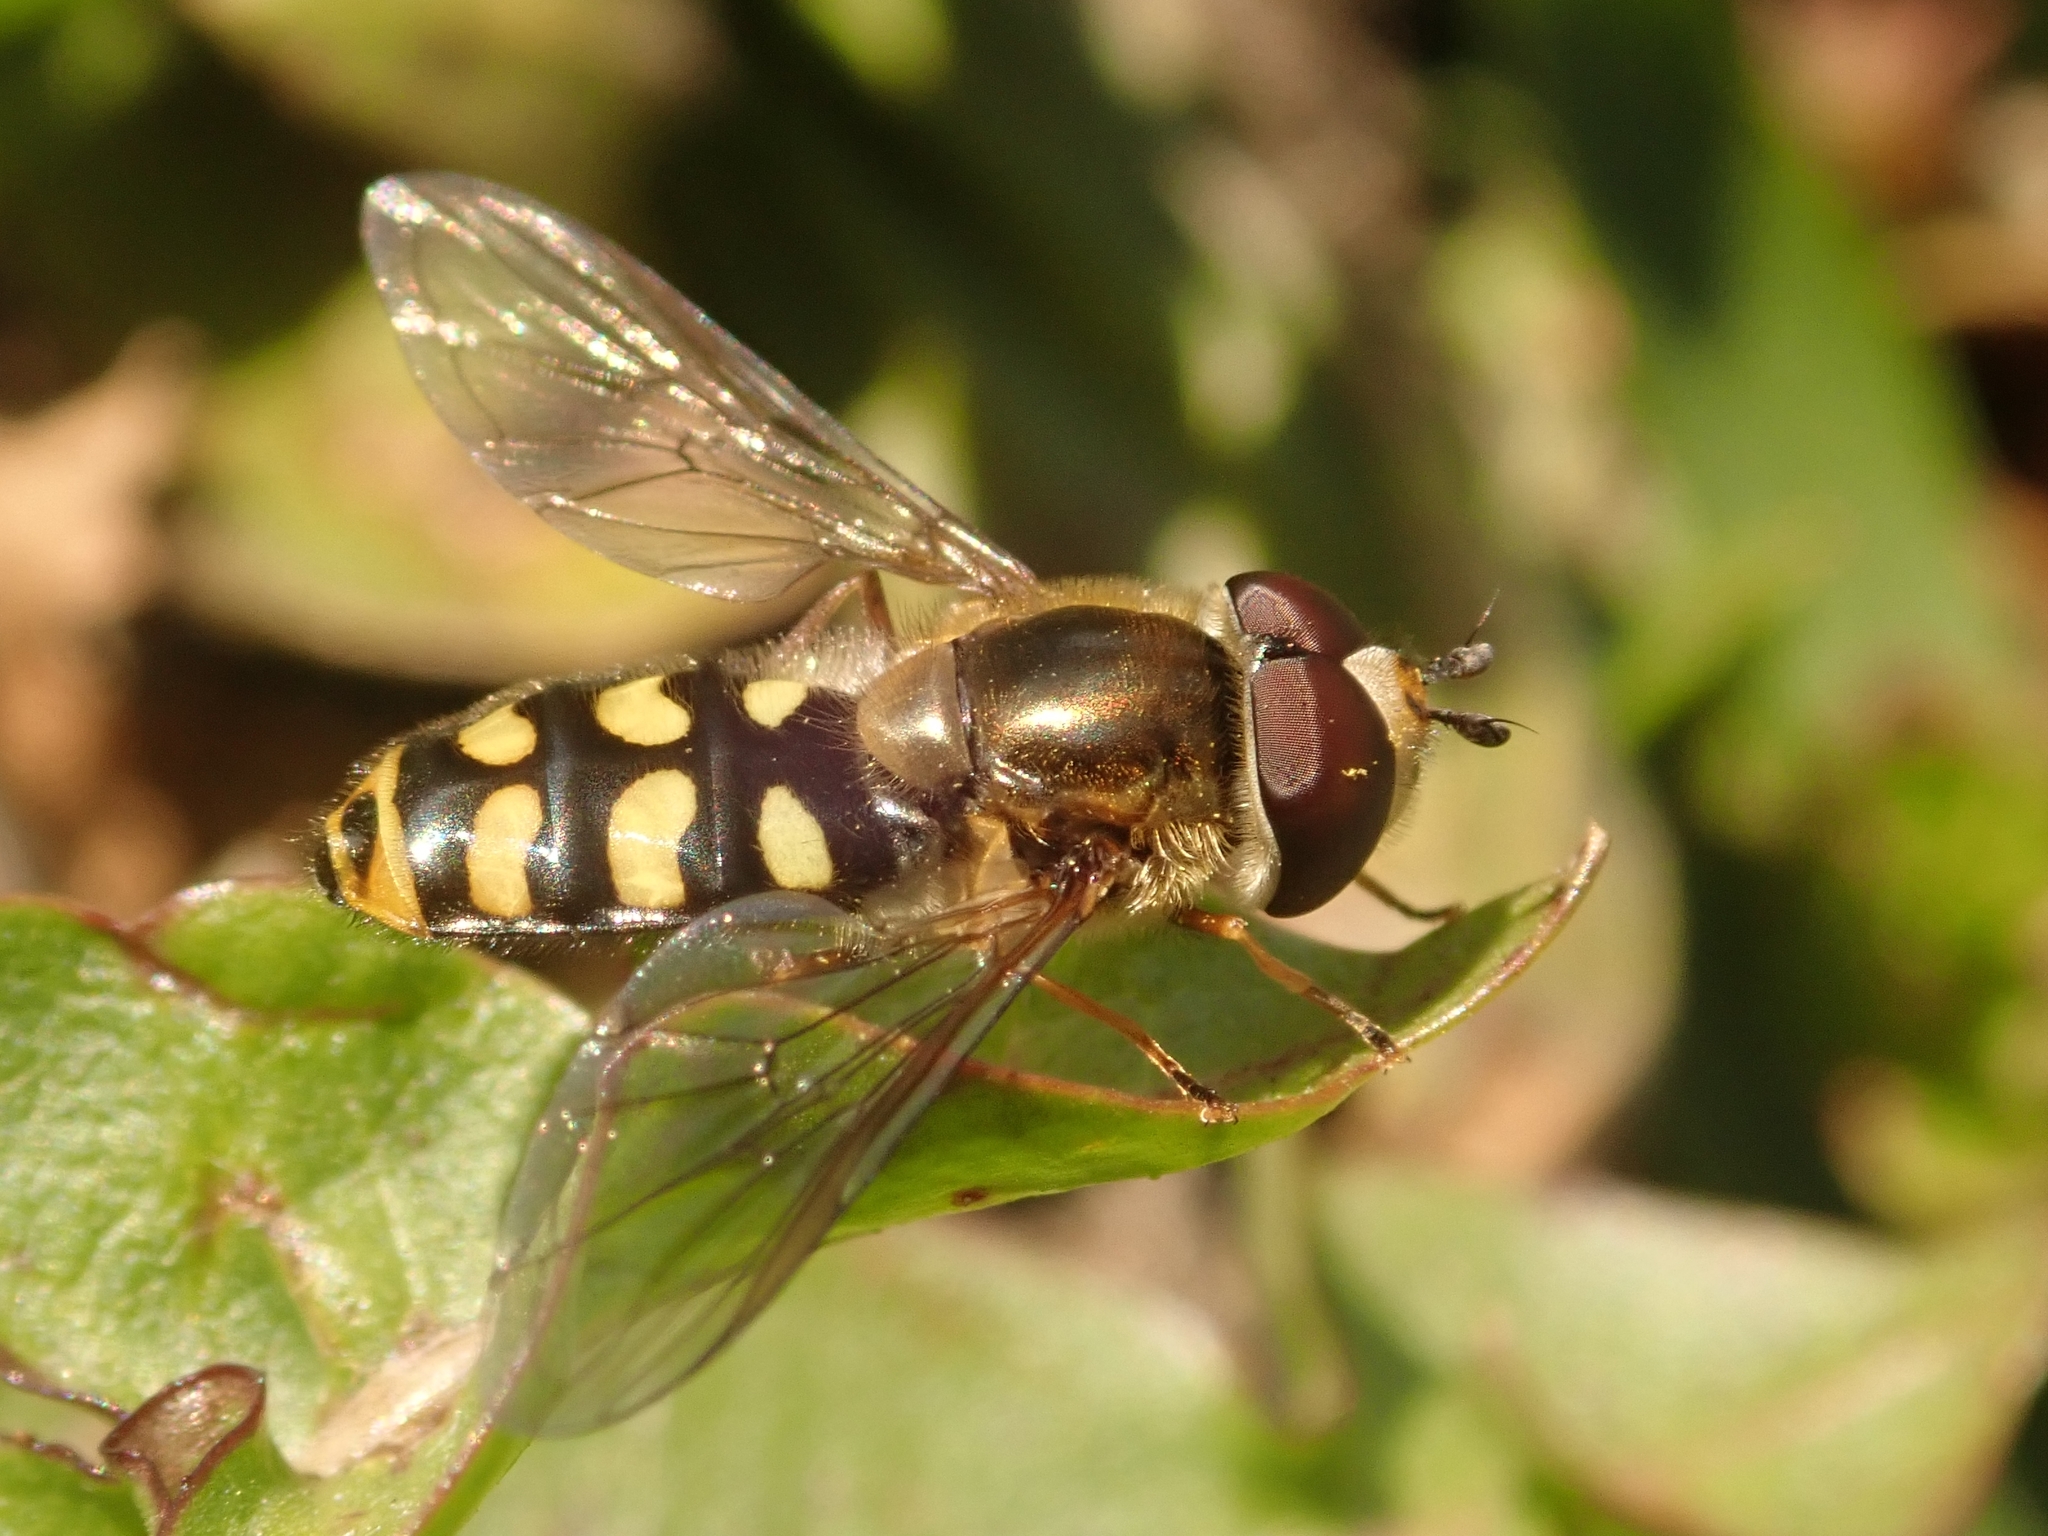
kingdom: Animalia
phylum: Arthropoda
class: Insecta
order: Diptera
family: Syrphidae
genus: Eupeodes
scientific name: Eupeodes luniger
